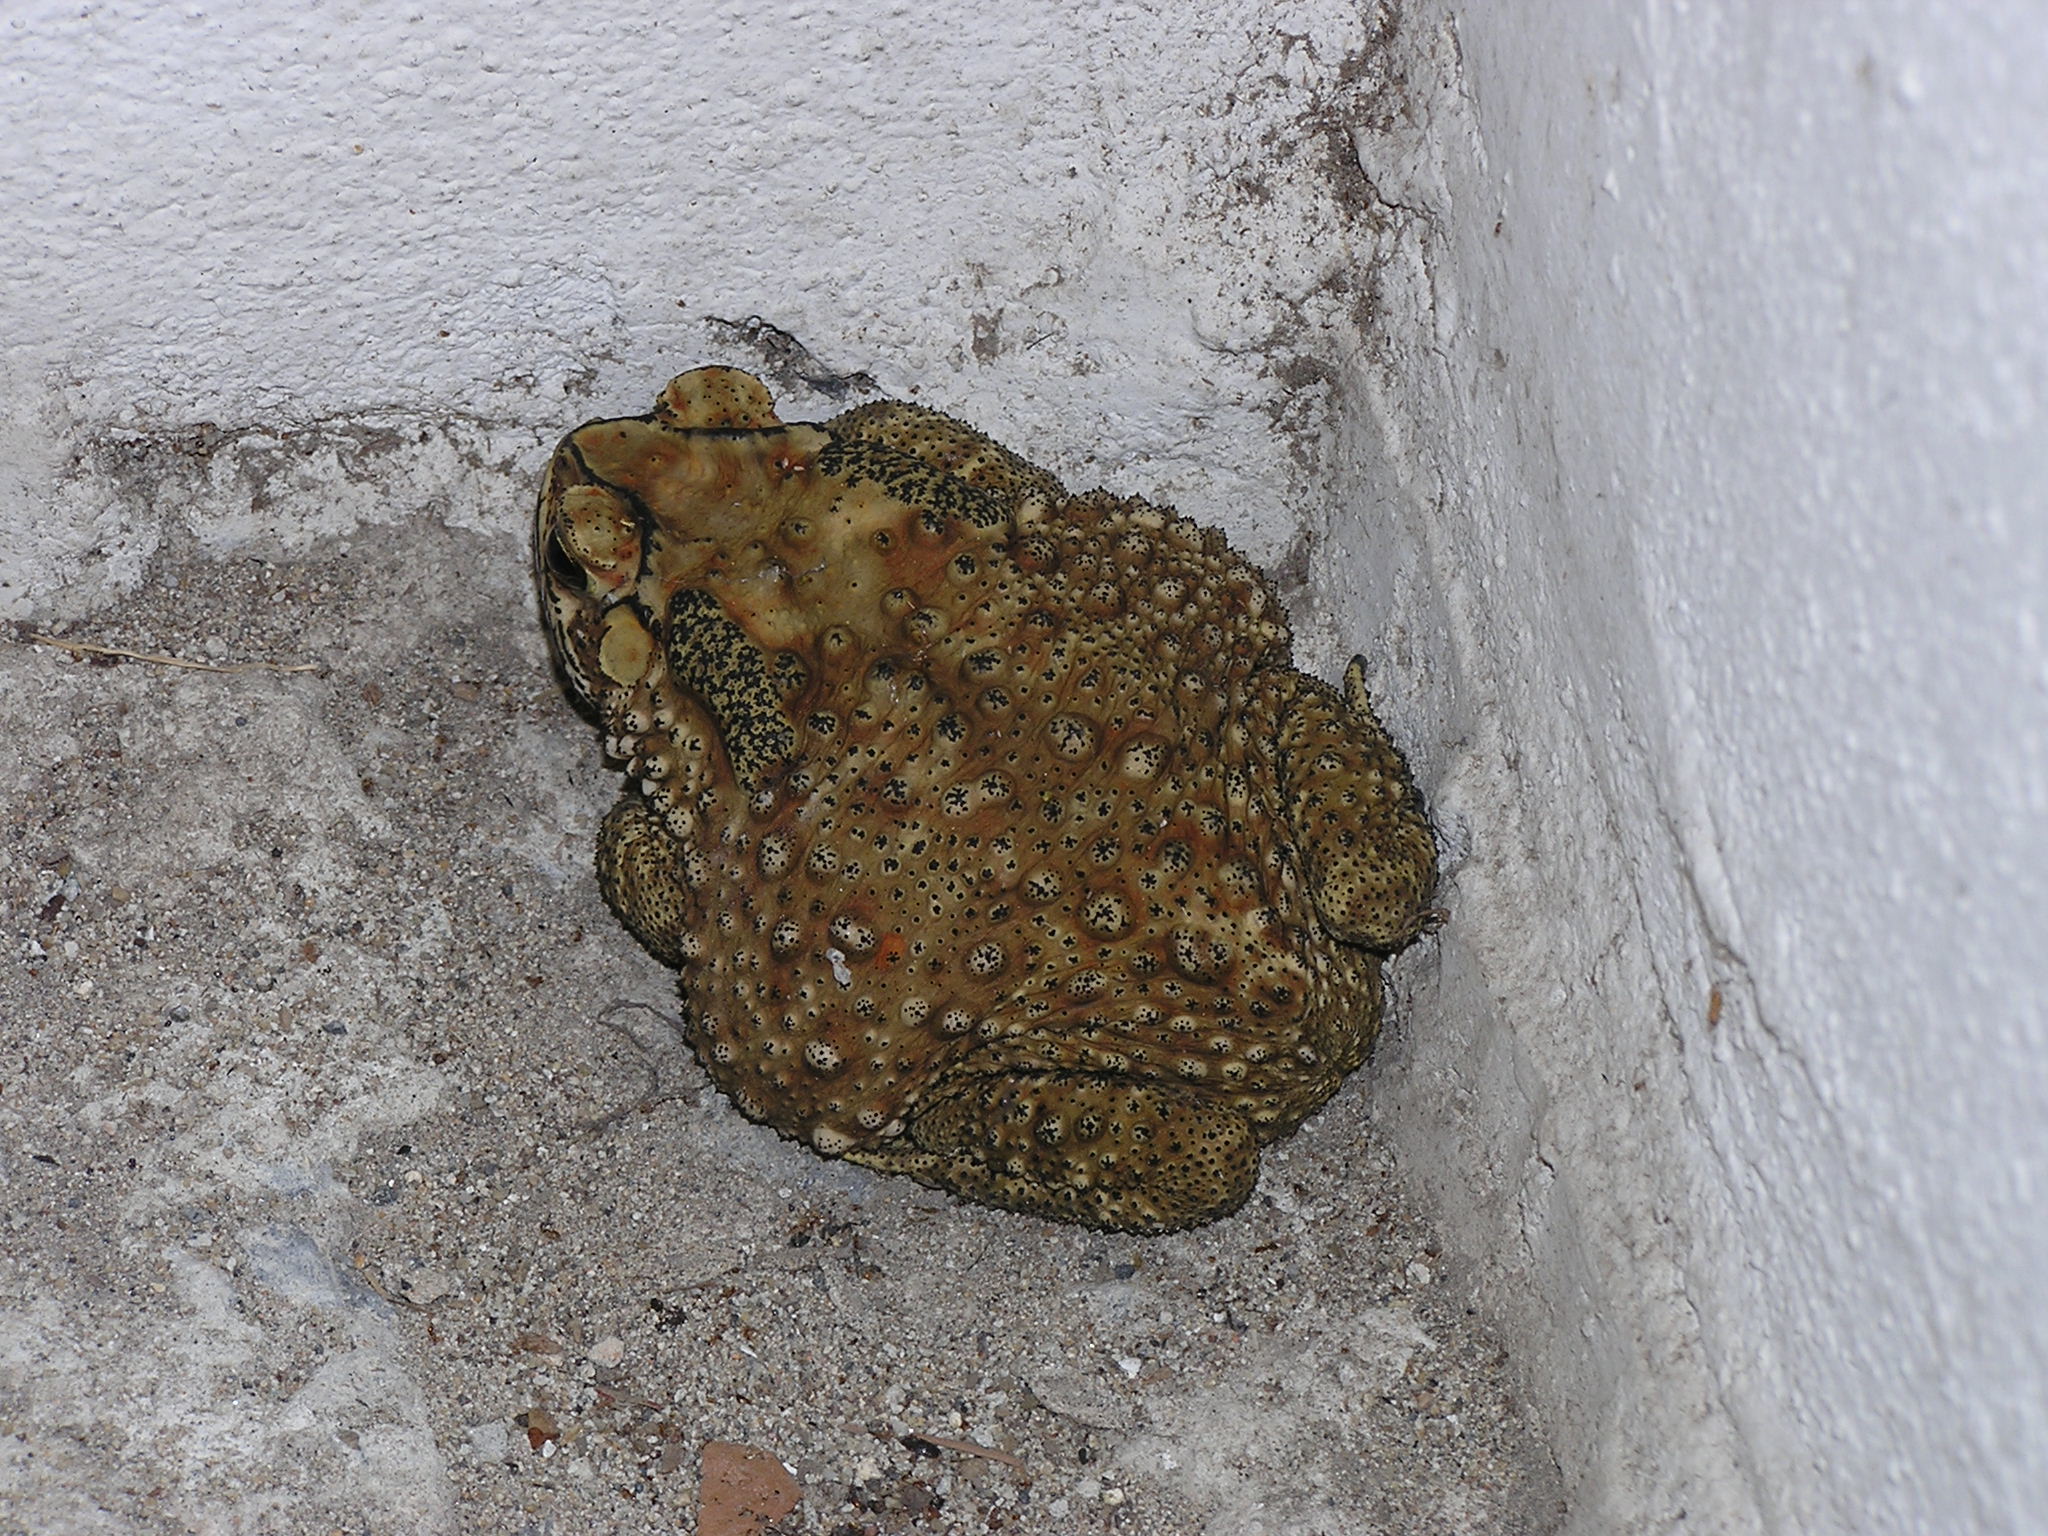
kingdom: Animalia
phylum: Chordata
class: Amphibia
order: Anura
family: Bufonidae
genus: Duttaphrynus
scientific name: Duttaphrynus melanostictus
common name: Common sunda toad
